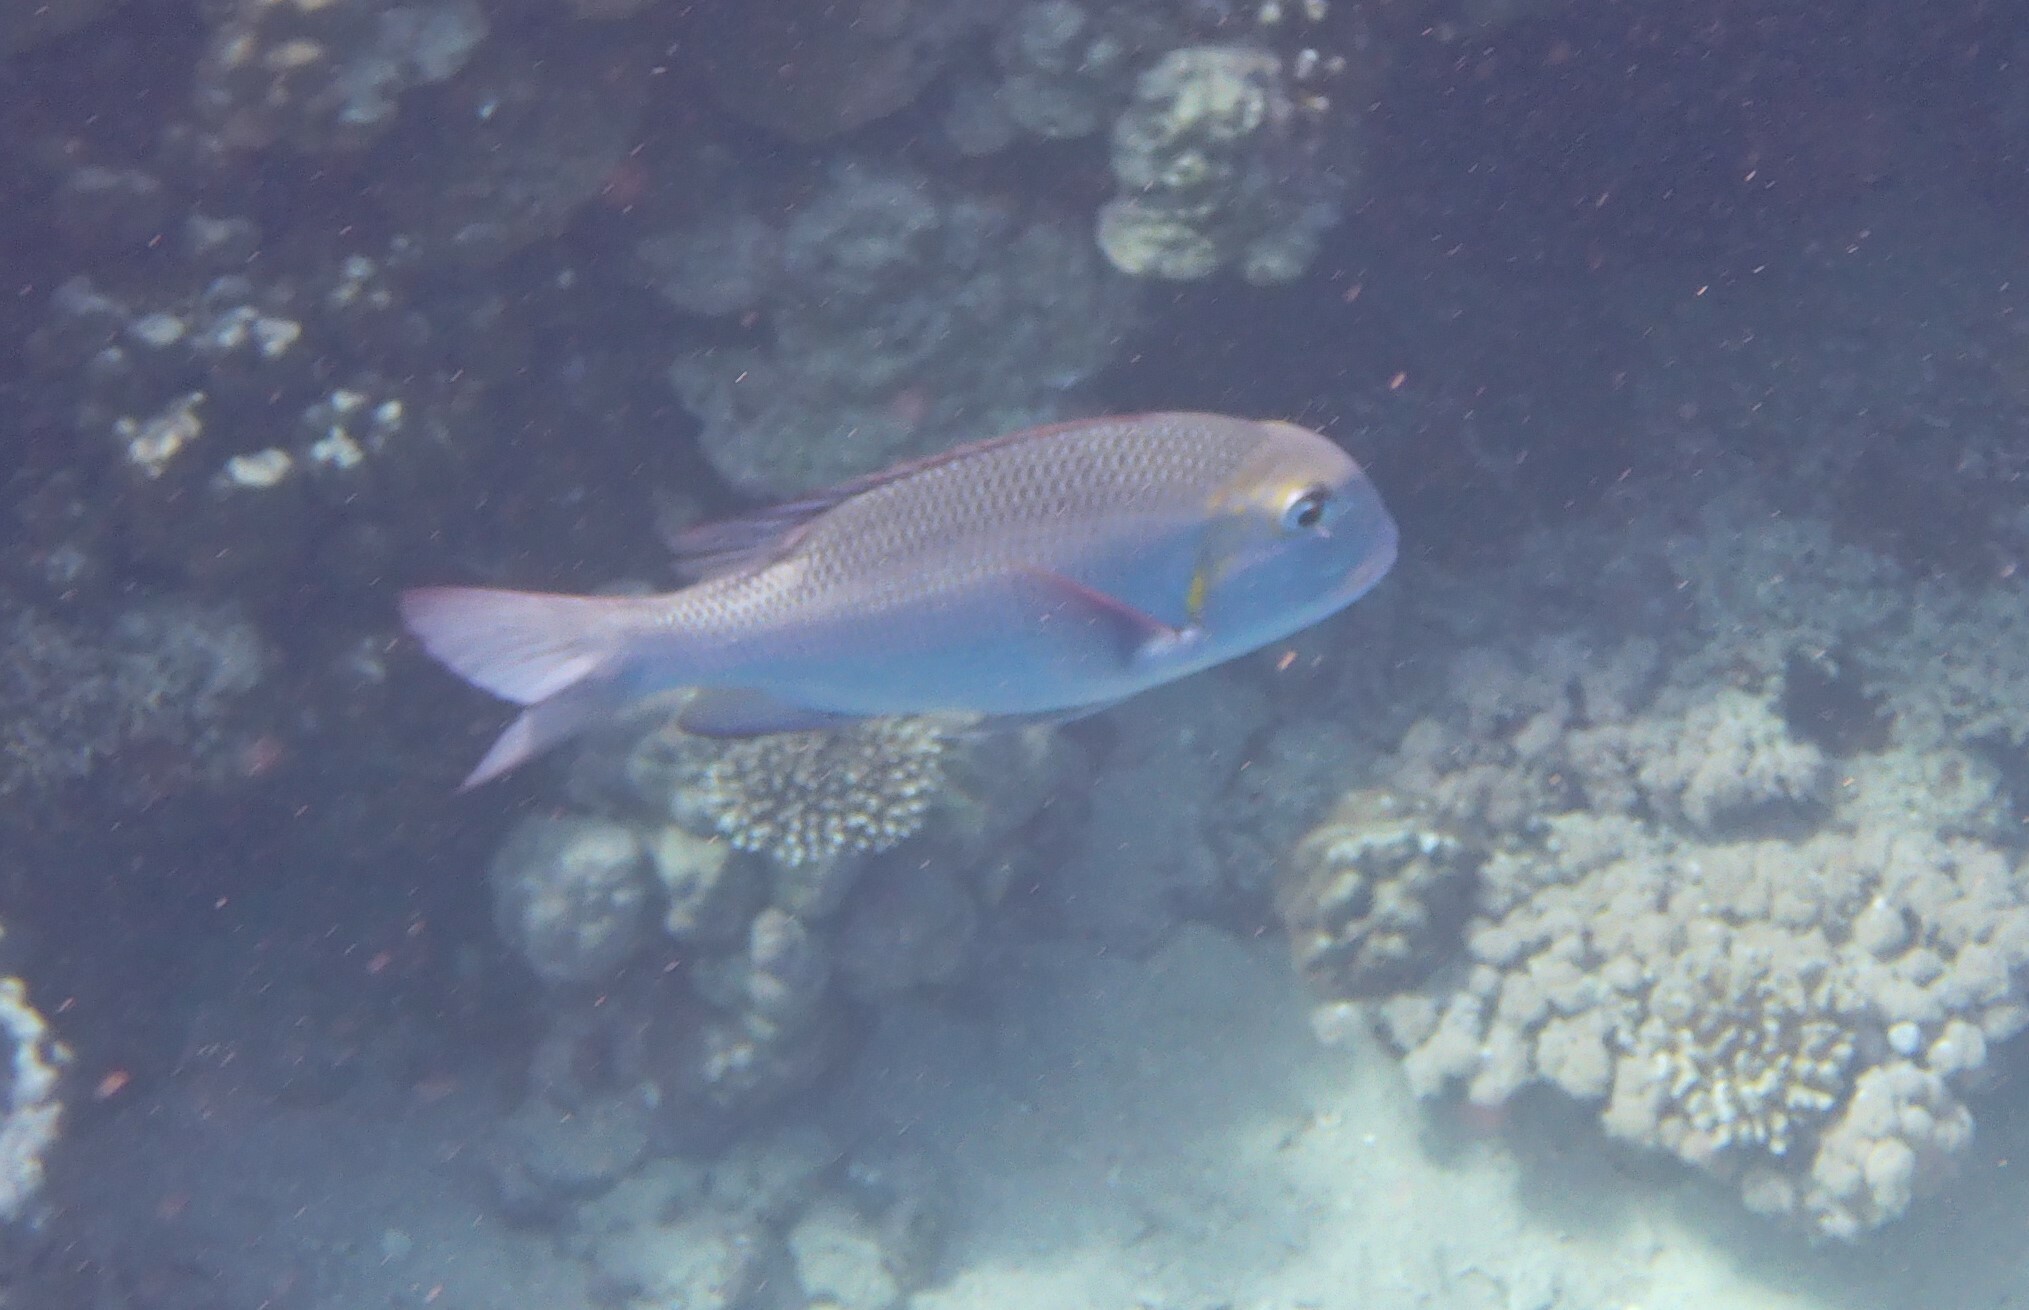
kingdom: Animalia
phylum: Chordata
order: Perciformes
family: Lethrinidae
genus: Monotaxis
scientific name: Monotaxis grandoculis
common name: Bigeye emperor
